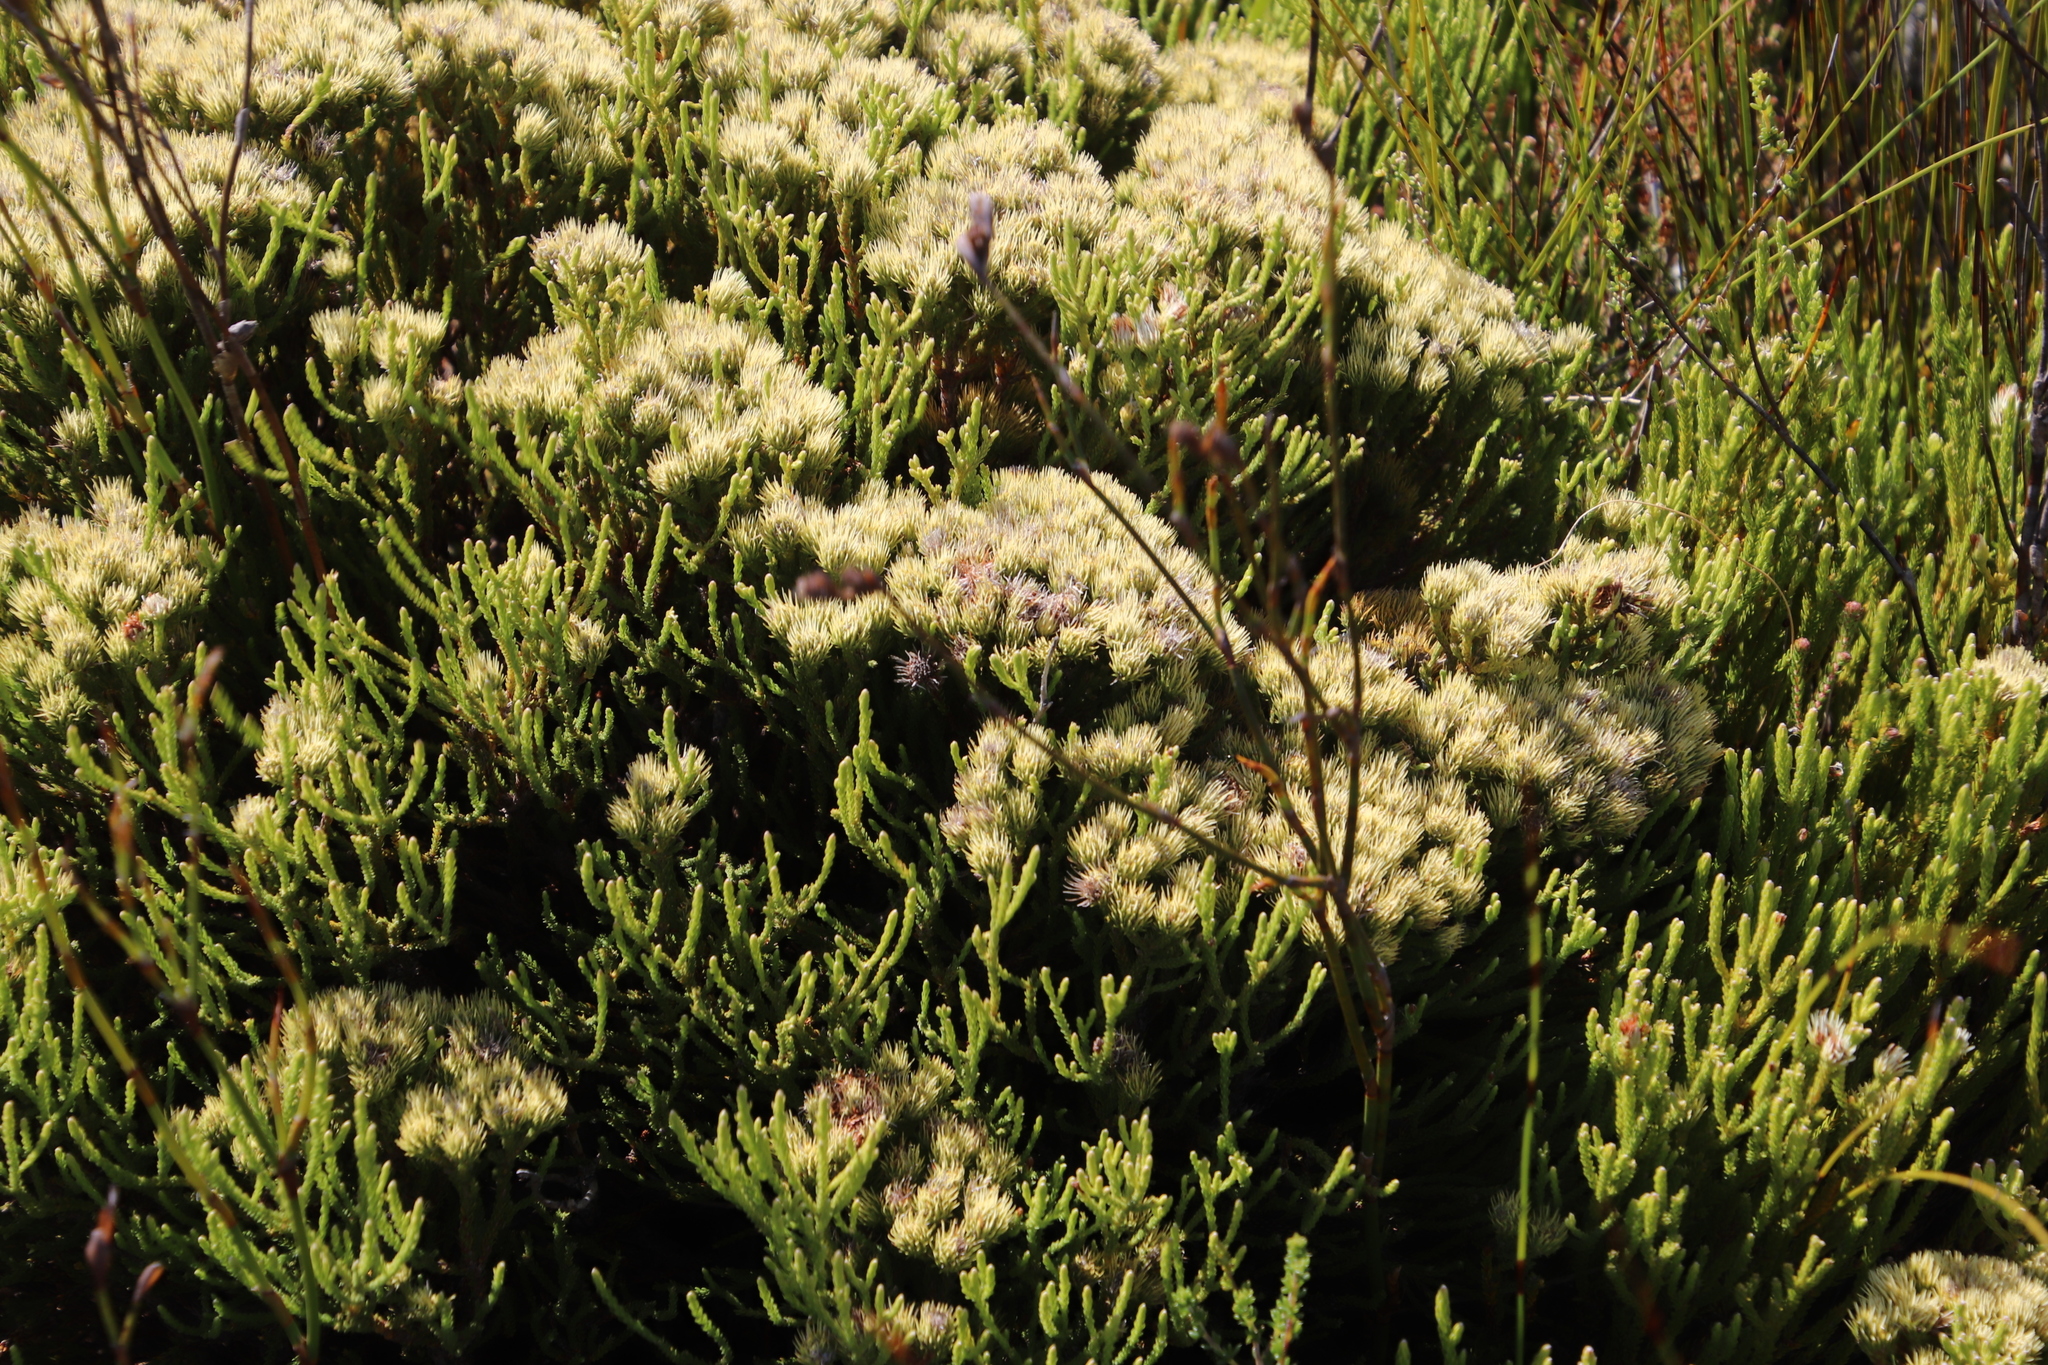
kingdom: Plantae
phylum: Tracheophyta
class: Magnoliopsida
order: Bruniales
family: Bruniaceae
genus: Brunia
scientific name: Brunia paleacea
